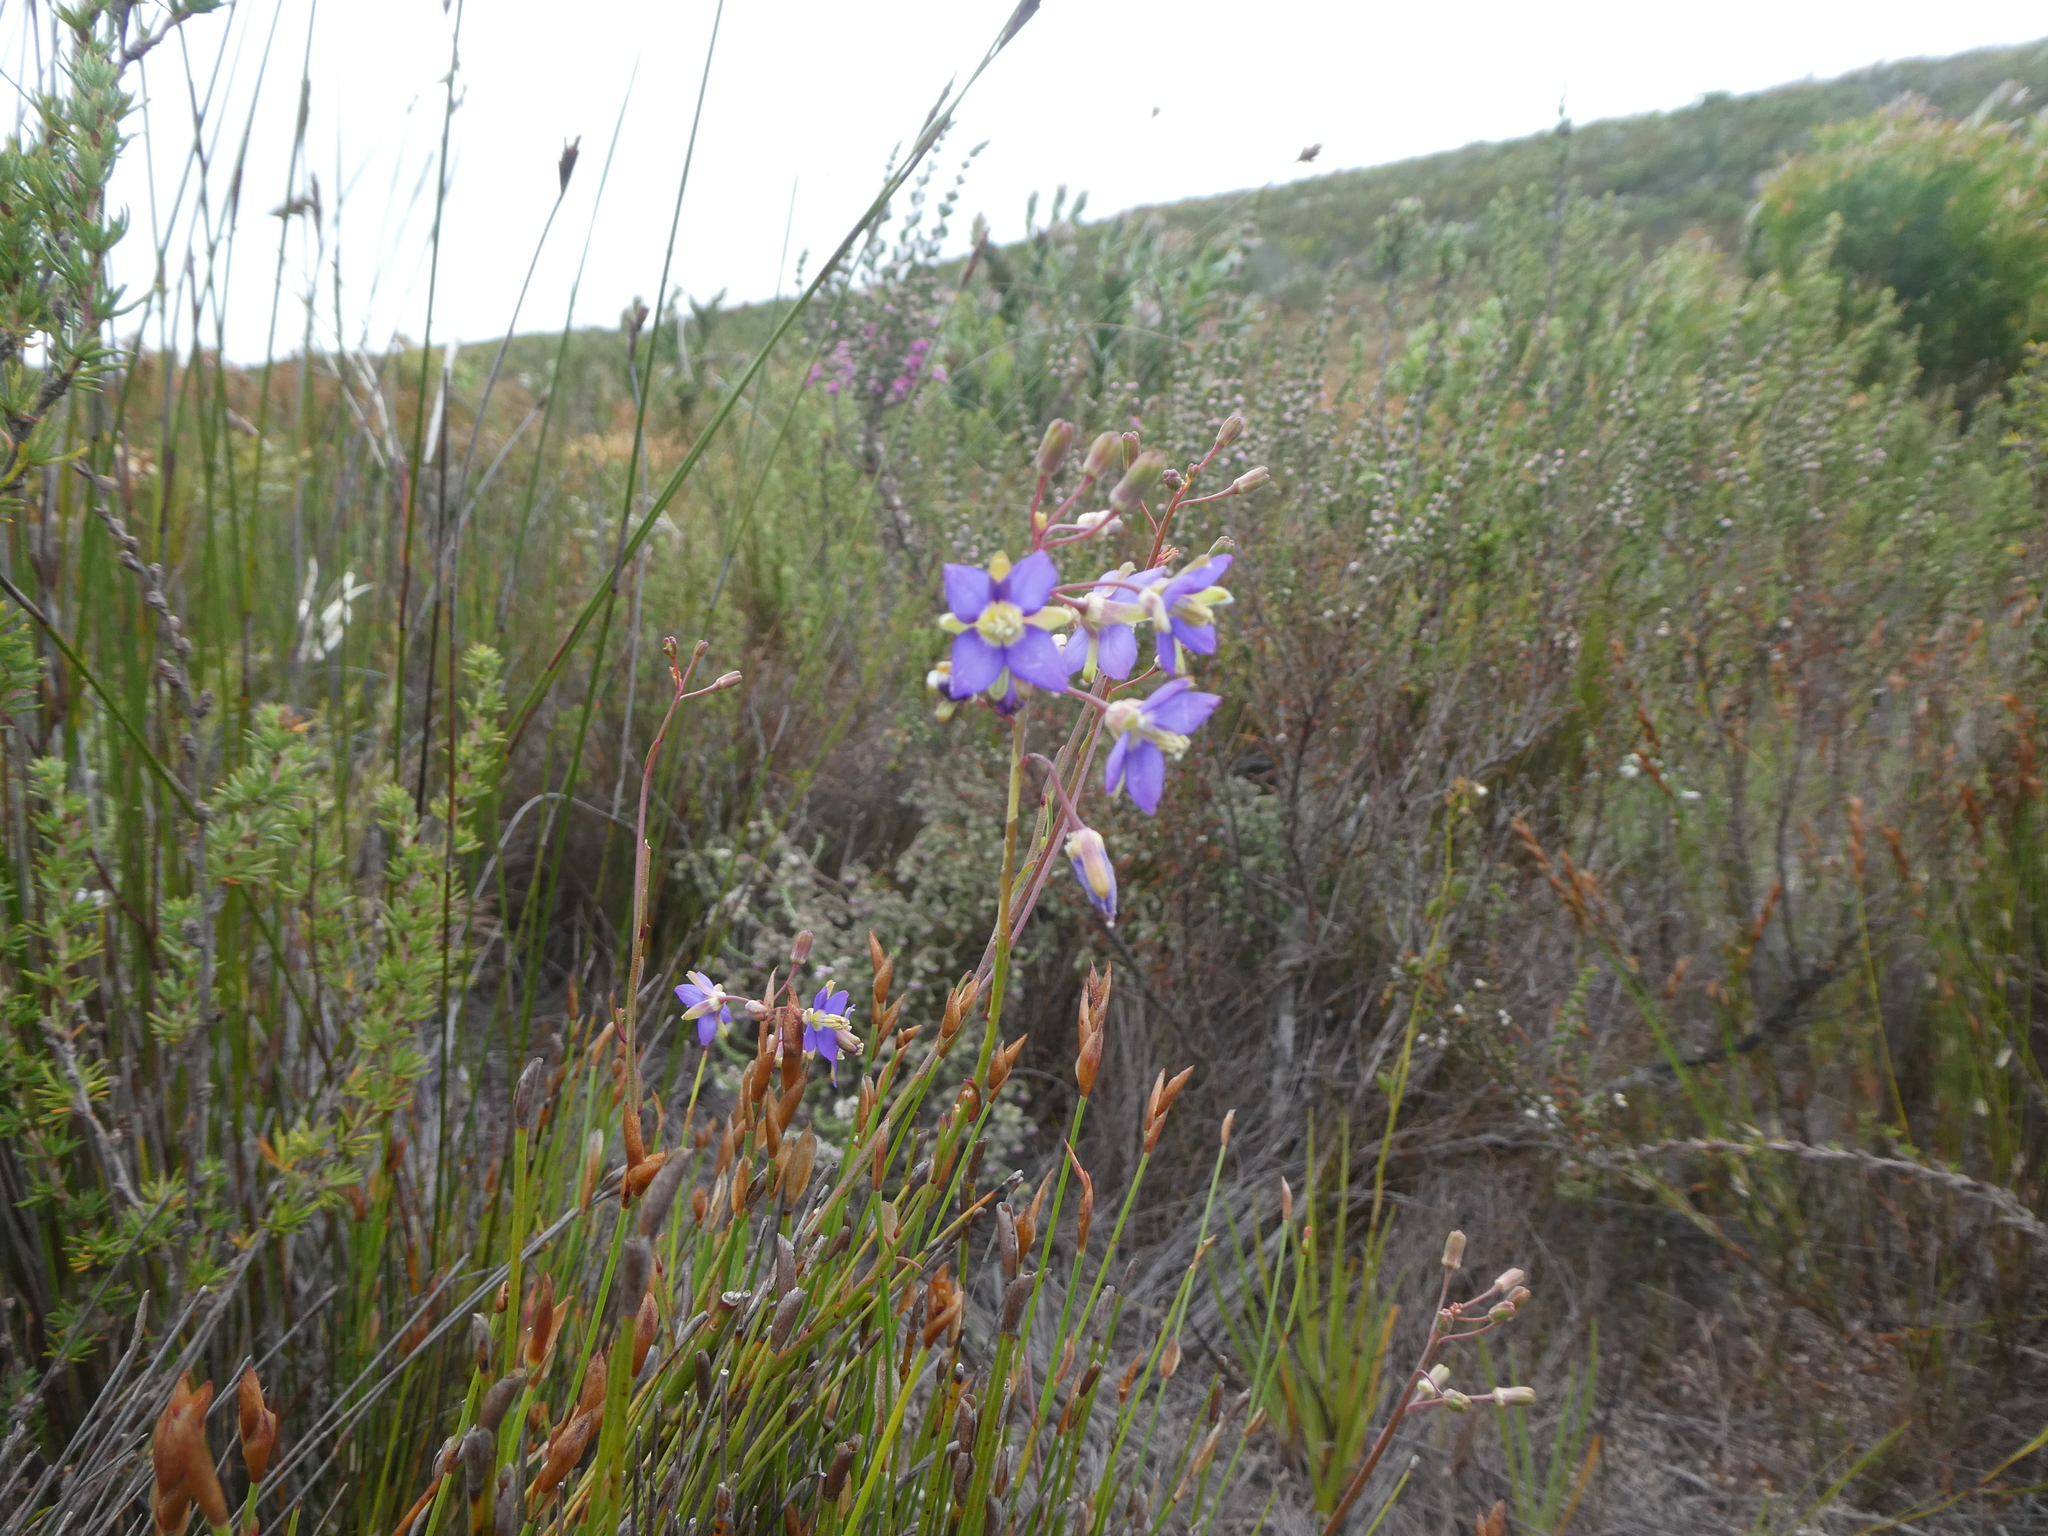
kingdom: Plantae
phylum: Tracheophyta
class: Magnoliopsida
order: Brassicales
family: Brassicaceae
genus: Heliophila
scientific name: Heliophila linearis
